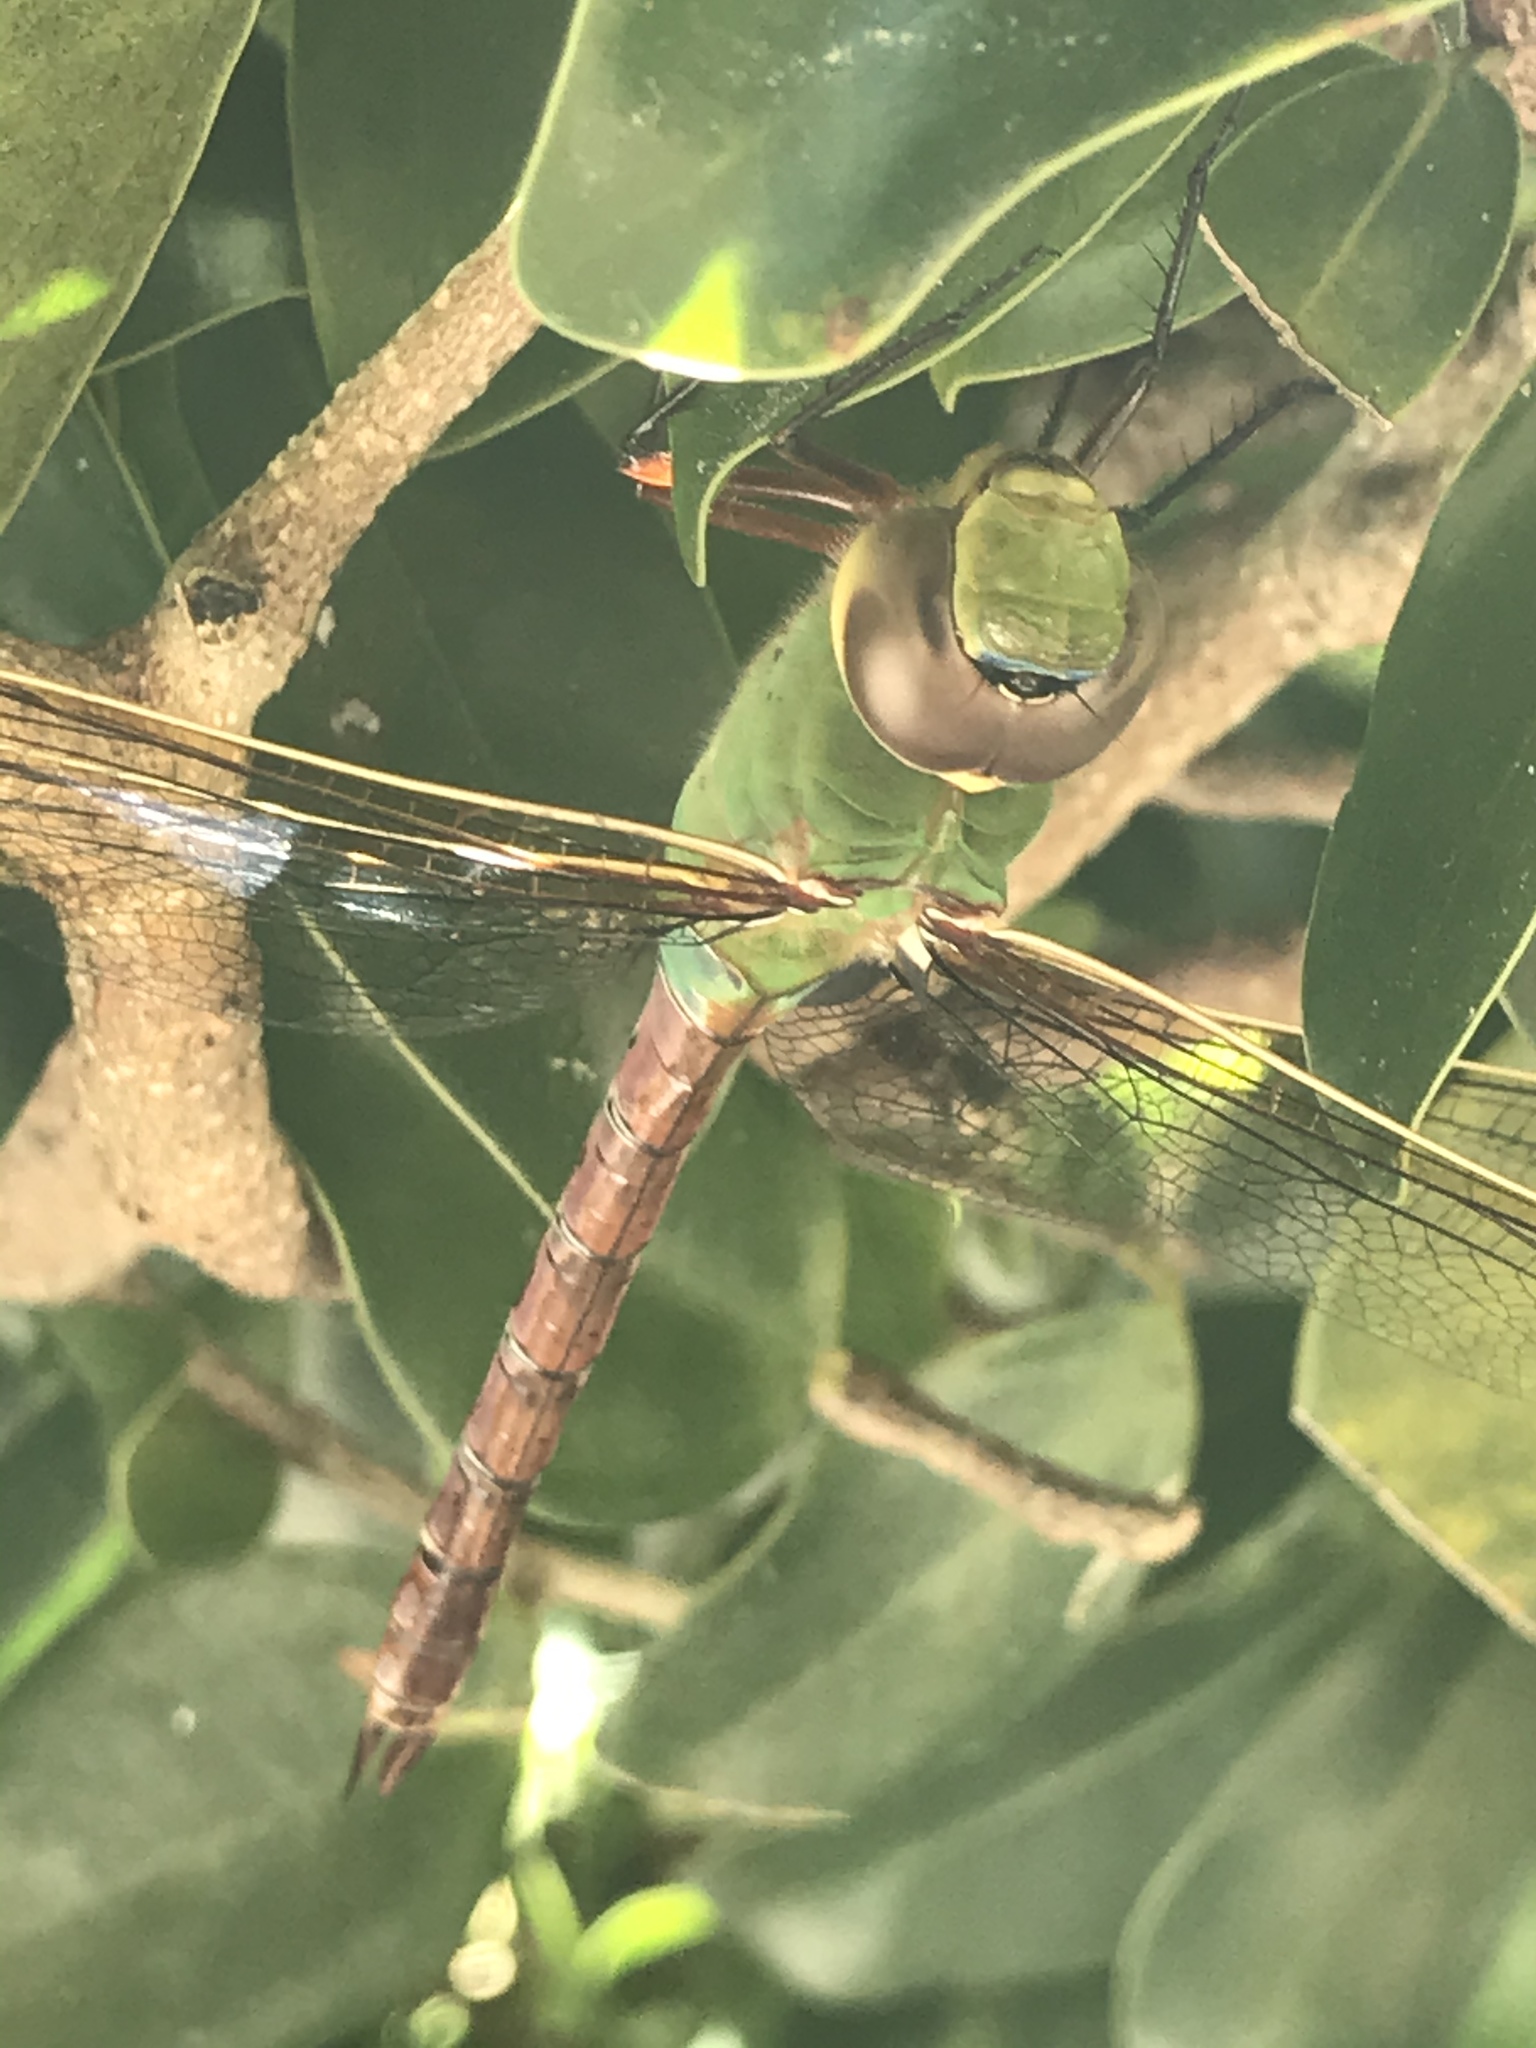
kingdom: Animalia
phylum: Arthropoda
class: Insecta
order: Odonata
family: Aeshnidae
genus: Anax
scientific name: Anax junius
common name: Common green darner
